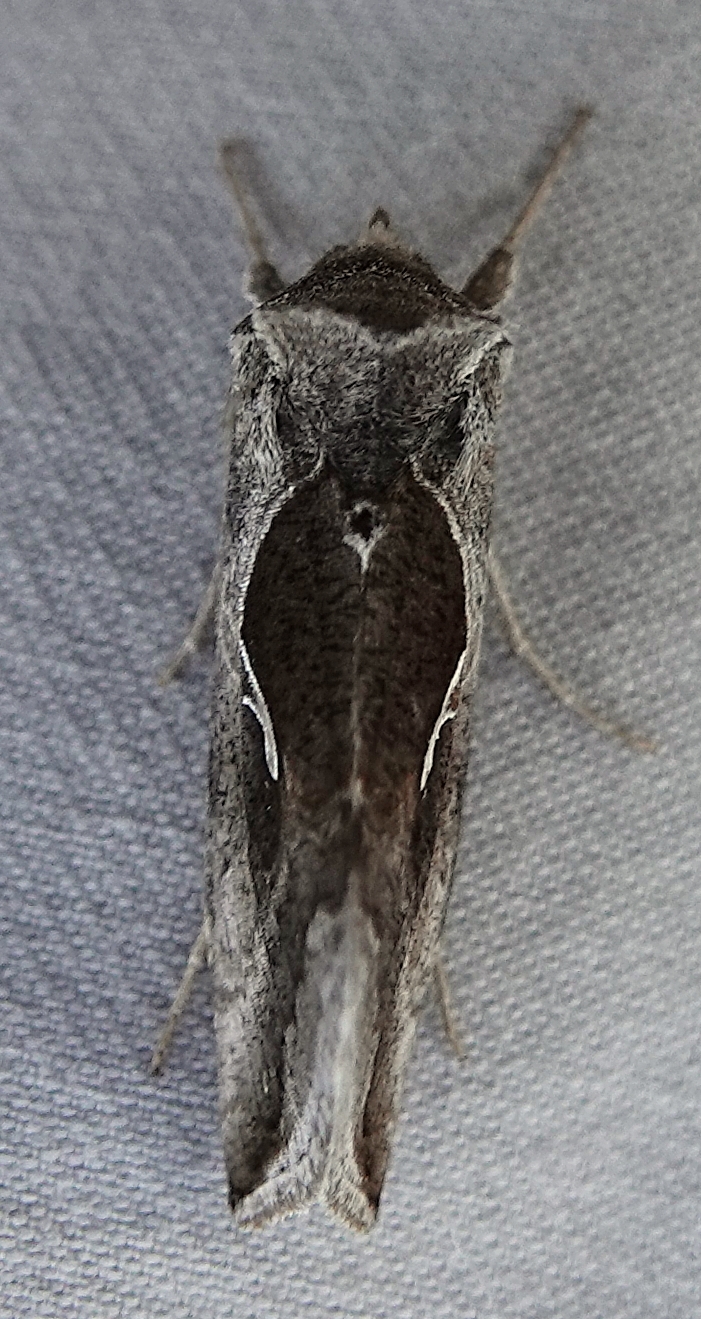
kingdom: Animalia
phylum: Arthropoda
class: Insecta
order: Lepidoptera
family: Noctuidae
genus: Anagrapha
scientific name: Anagrapha falcifera
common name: Celery looper
